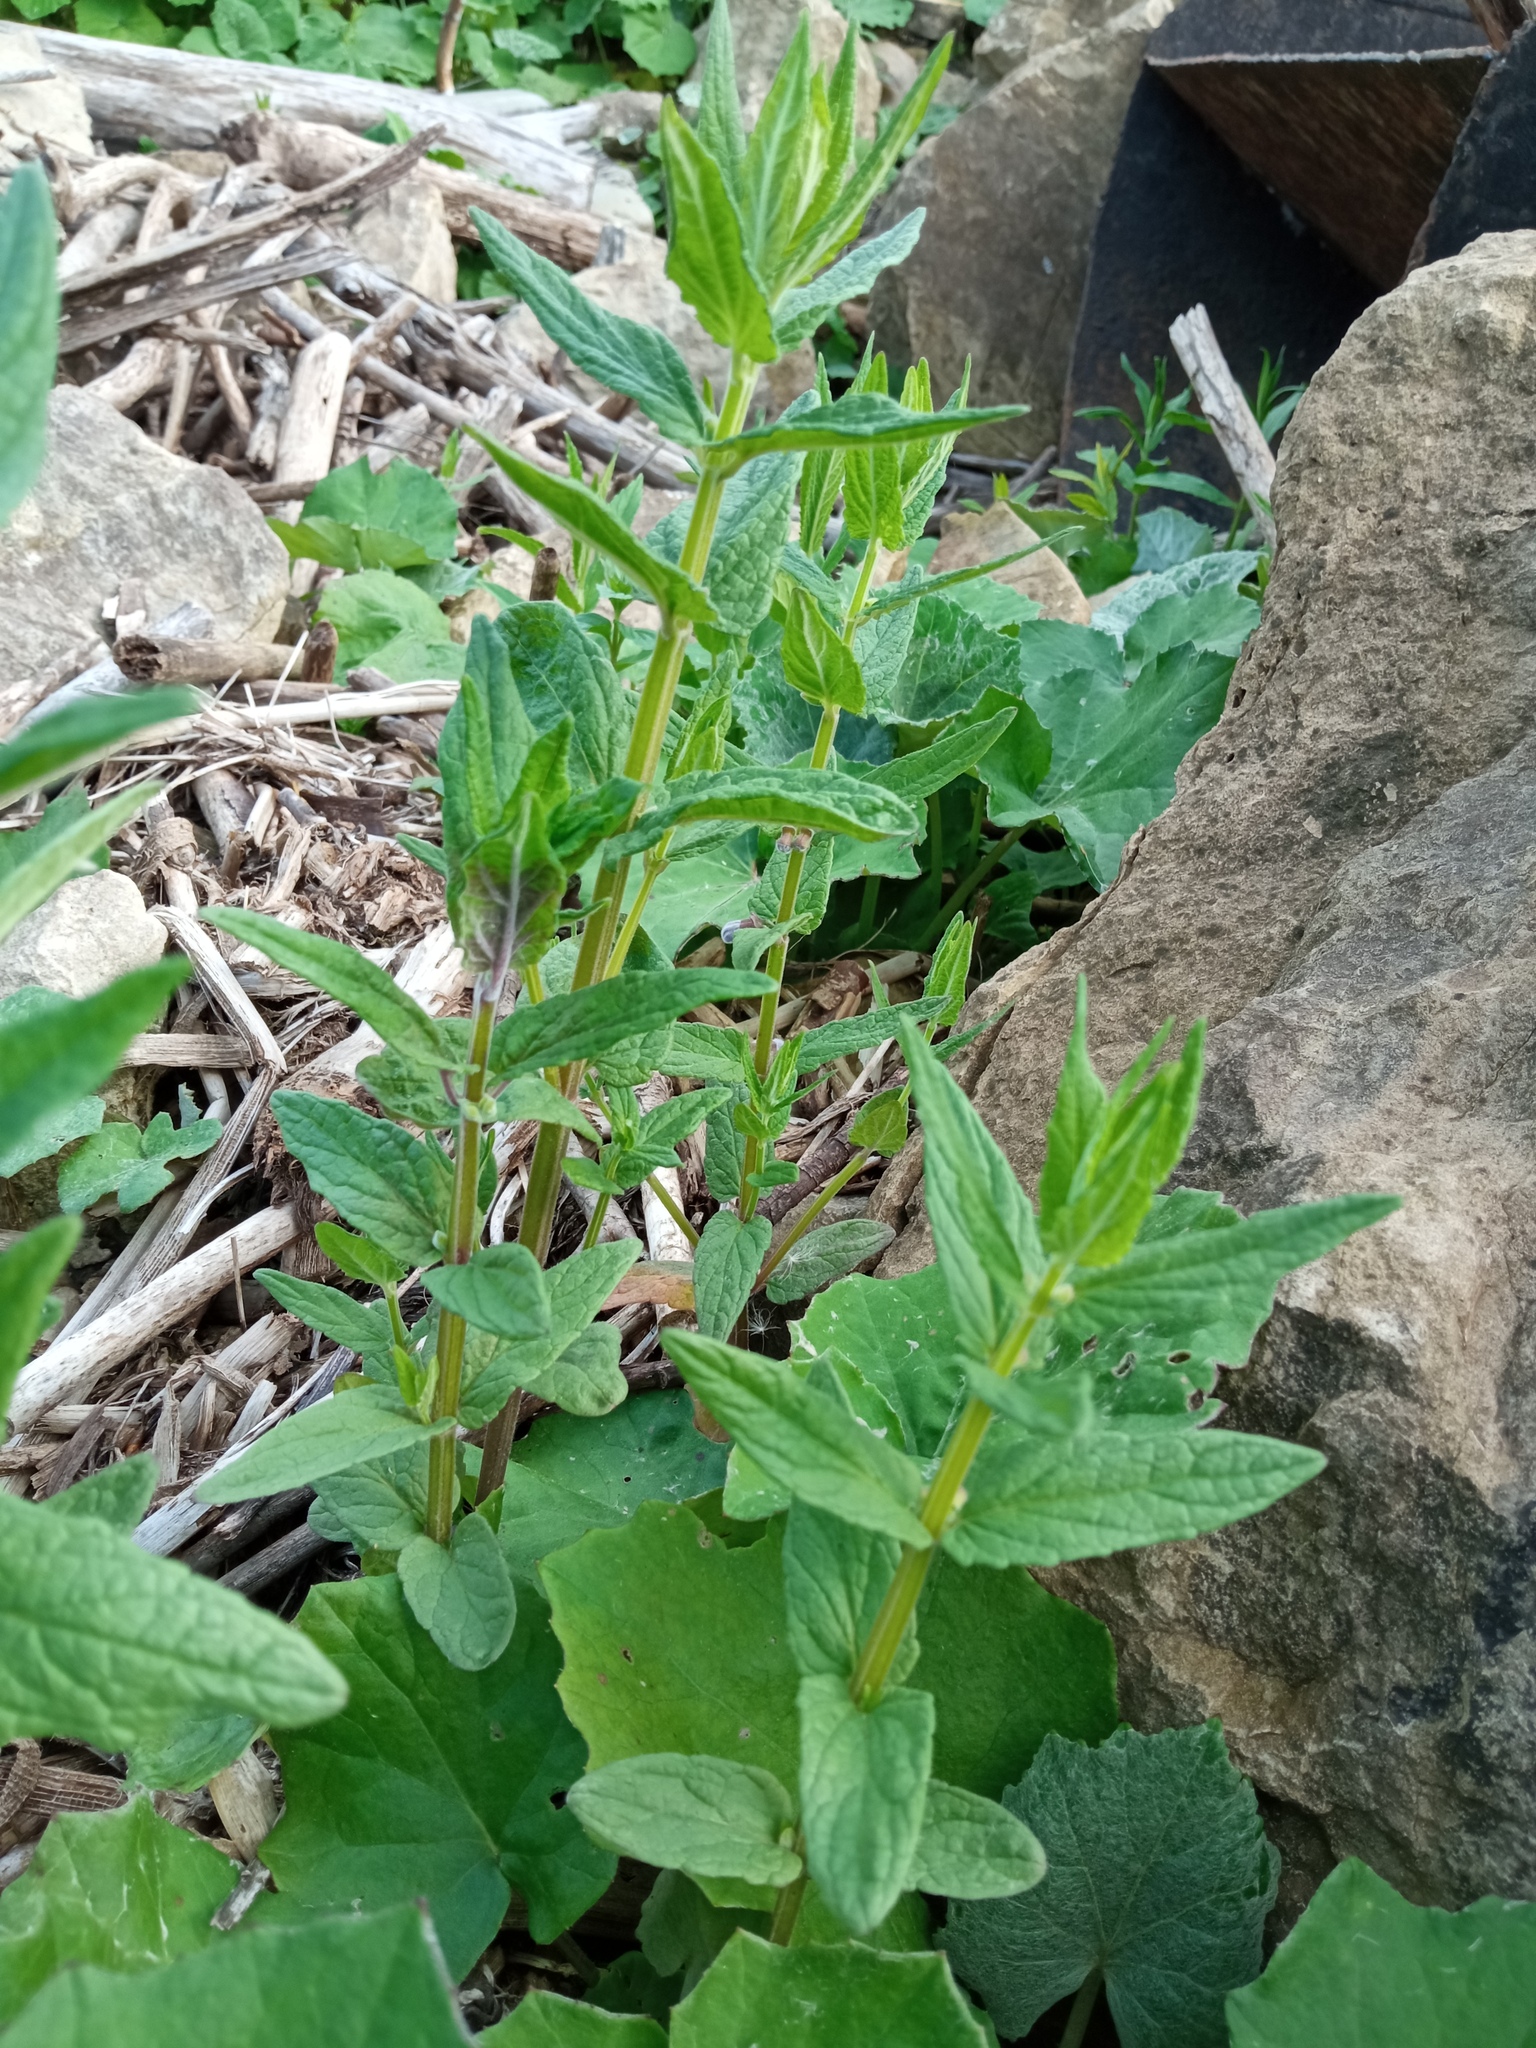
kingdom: Plantae
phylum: Tracheophyta
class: Magnoliopsida
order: Lamiales
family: Lamiaceae
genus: Scutellaria
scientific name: Scutellaria galericulata
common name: Skullcap
